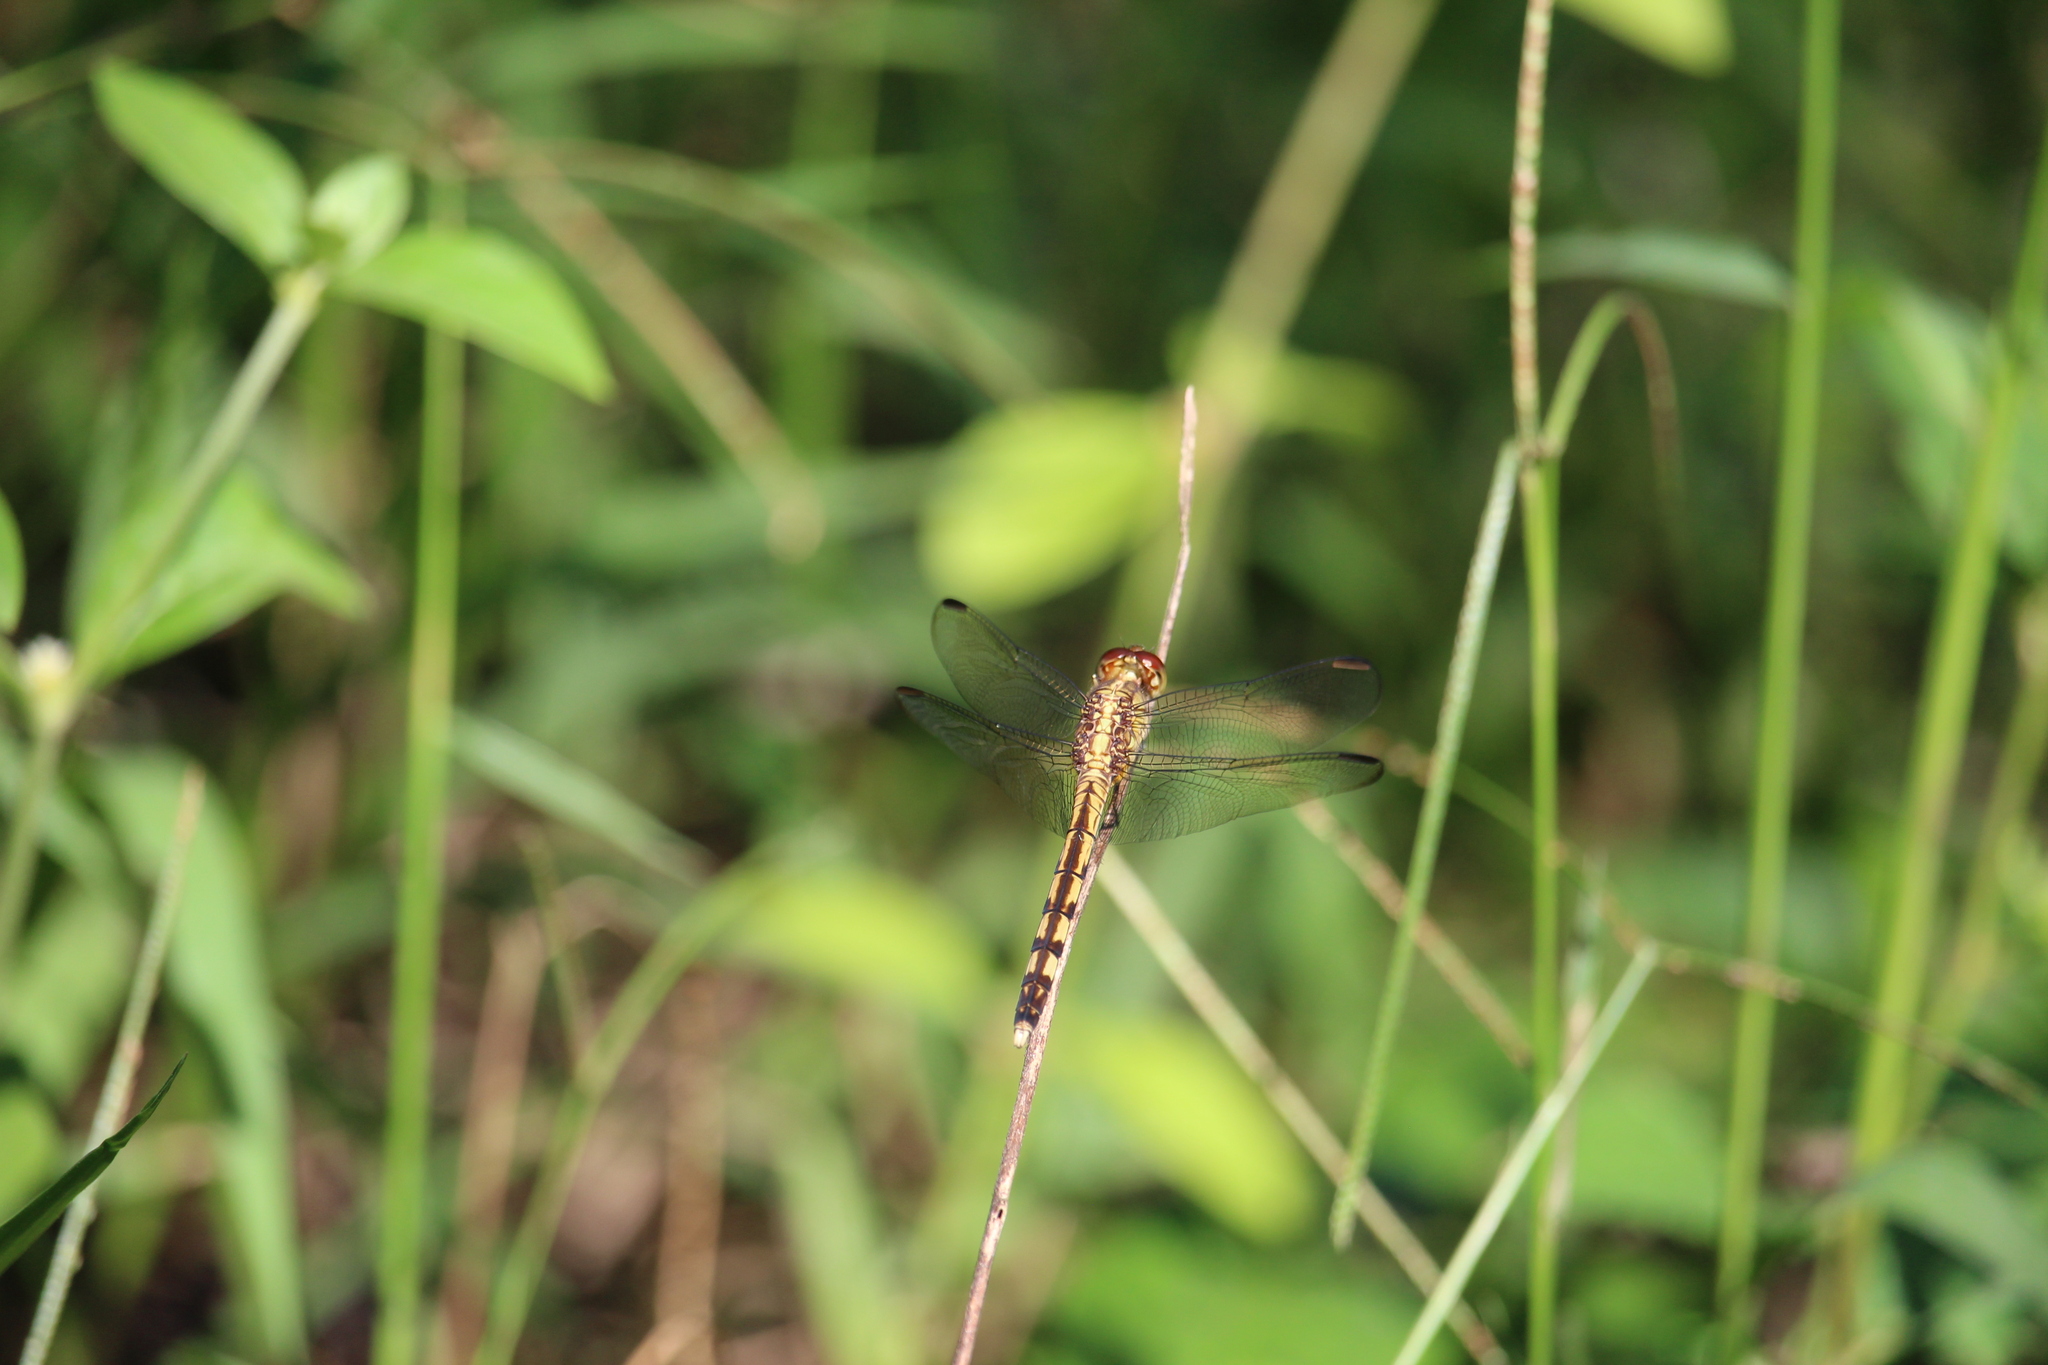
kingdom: Animalia
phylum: Arthropoda
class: Insecta
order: Odonata
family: Libellulidae
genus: Erythrodiplax
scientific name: Erythrodiplax umbrata
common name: Band-winged dragonlet
